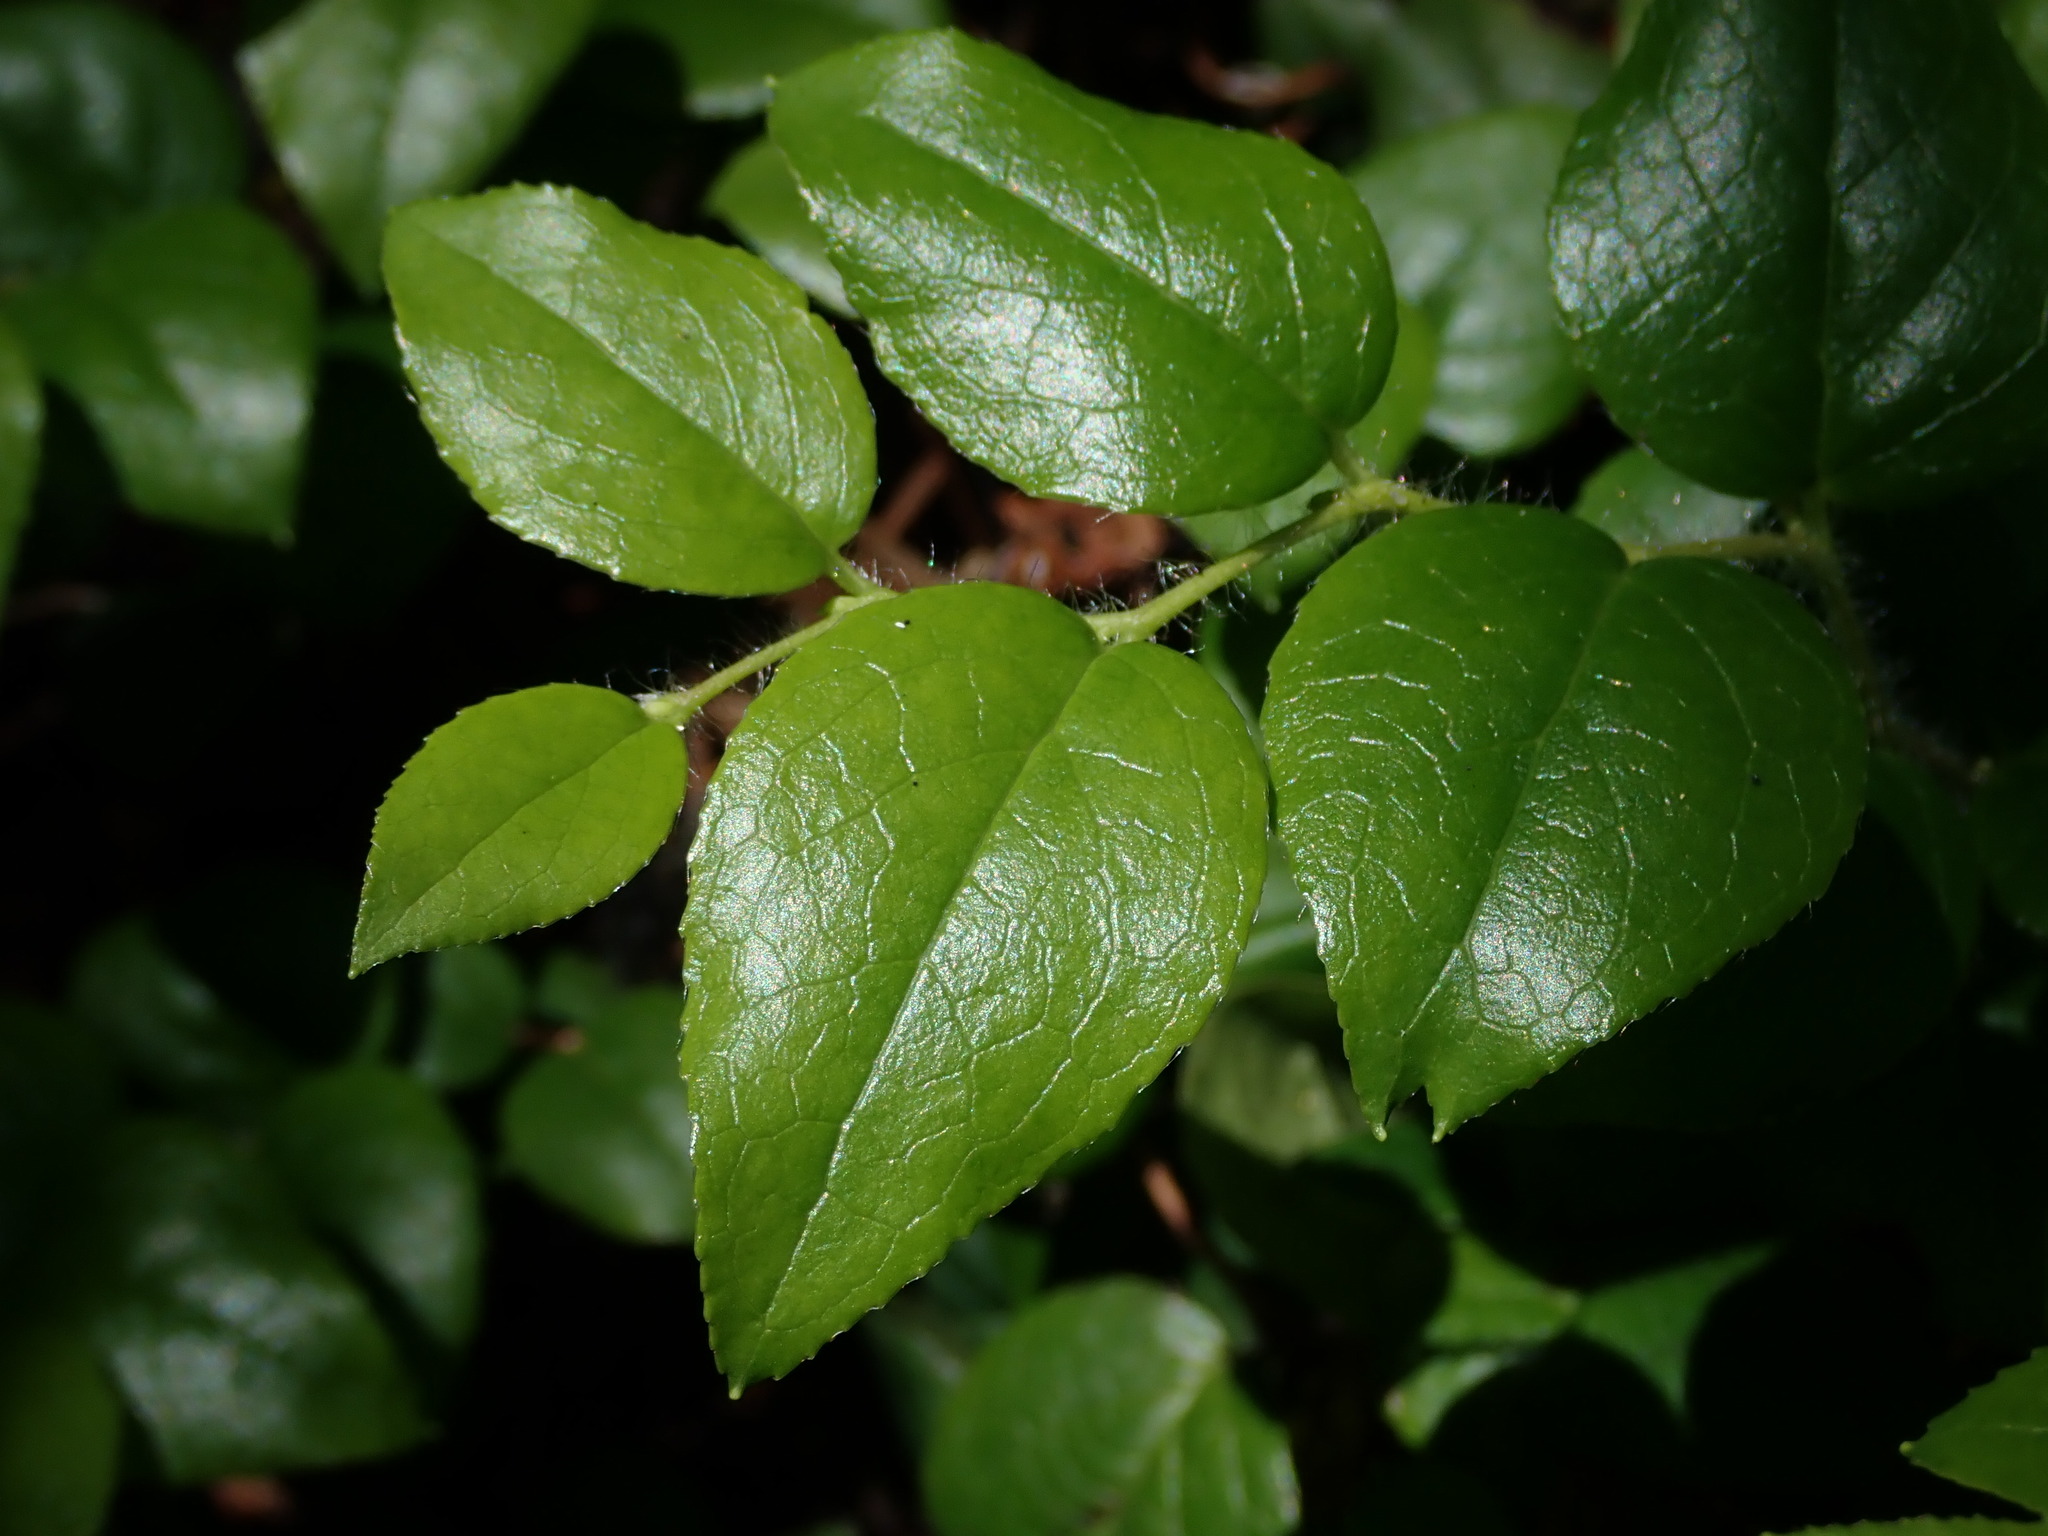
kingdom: Plantae
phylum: Tracheophyta
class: Magnoliopsida
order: Ericales
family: Ericaceae
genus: Gaultheria
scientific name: Gaultheria ovatifolia
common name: Oregon wintergreen
